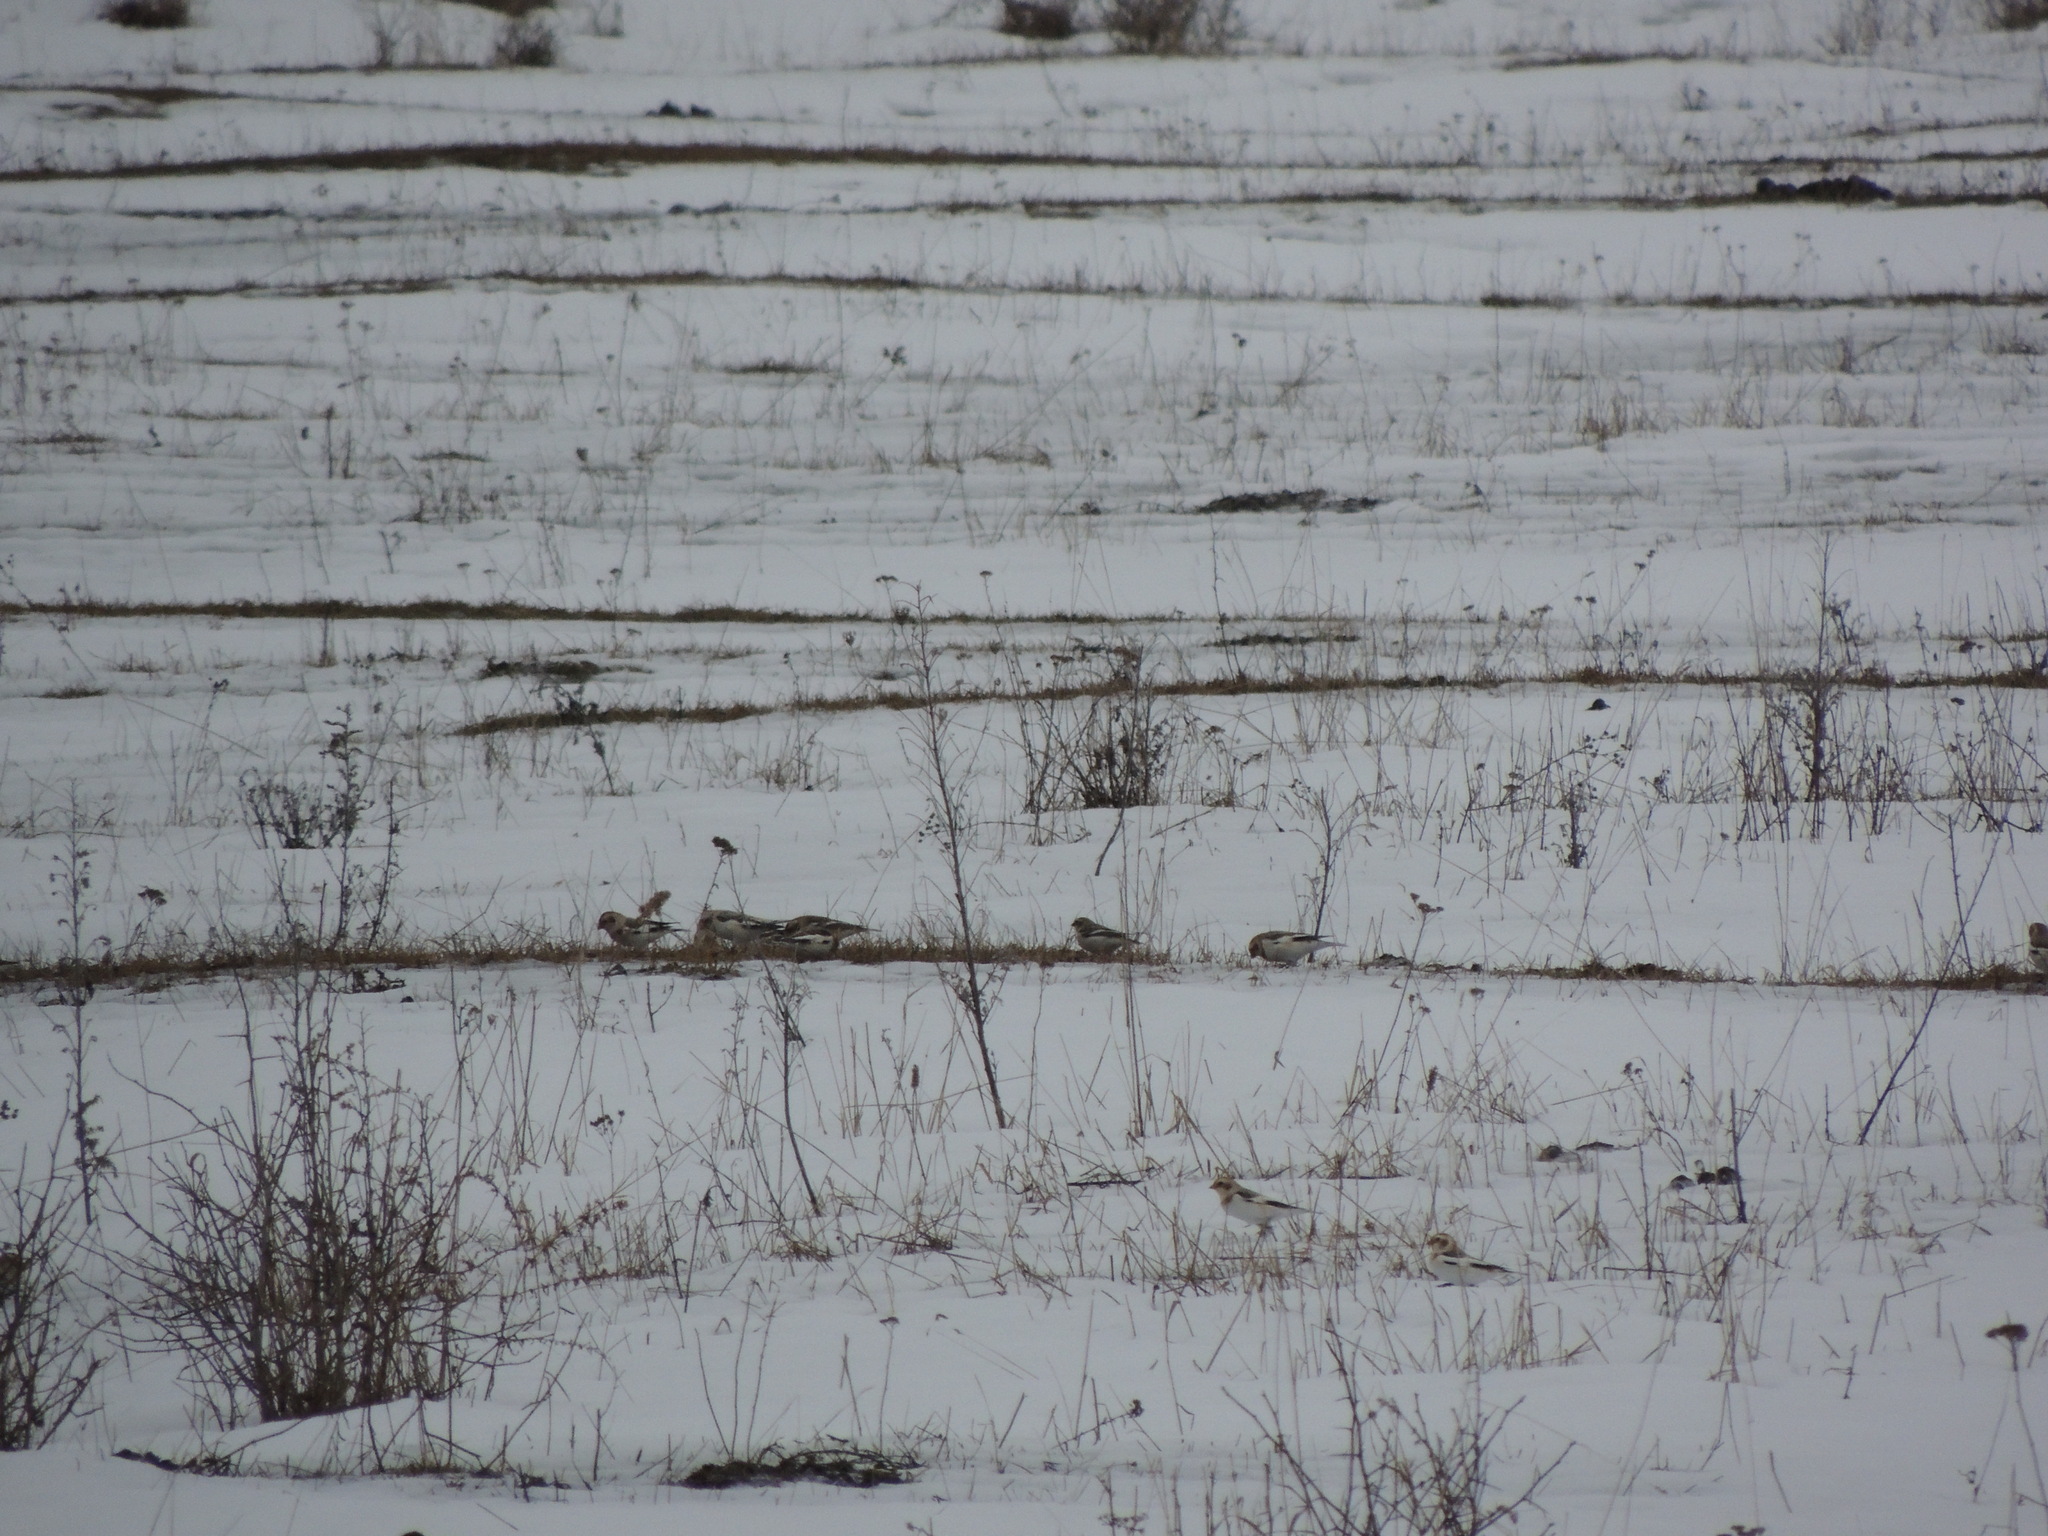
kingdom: Animalia
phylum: Chordata
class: Aves
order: Passeriformes
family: Calcariidae
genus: Plectrophenax
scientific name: Plectrophenax nivalis
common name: Snow bunting
